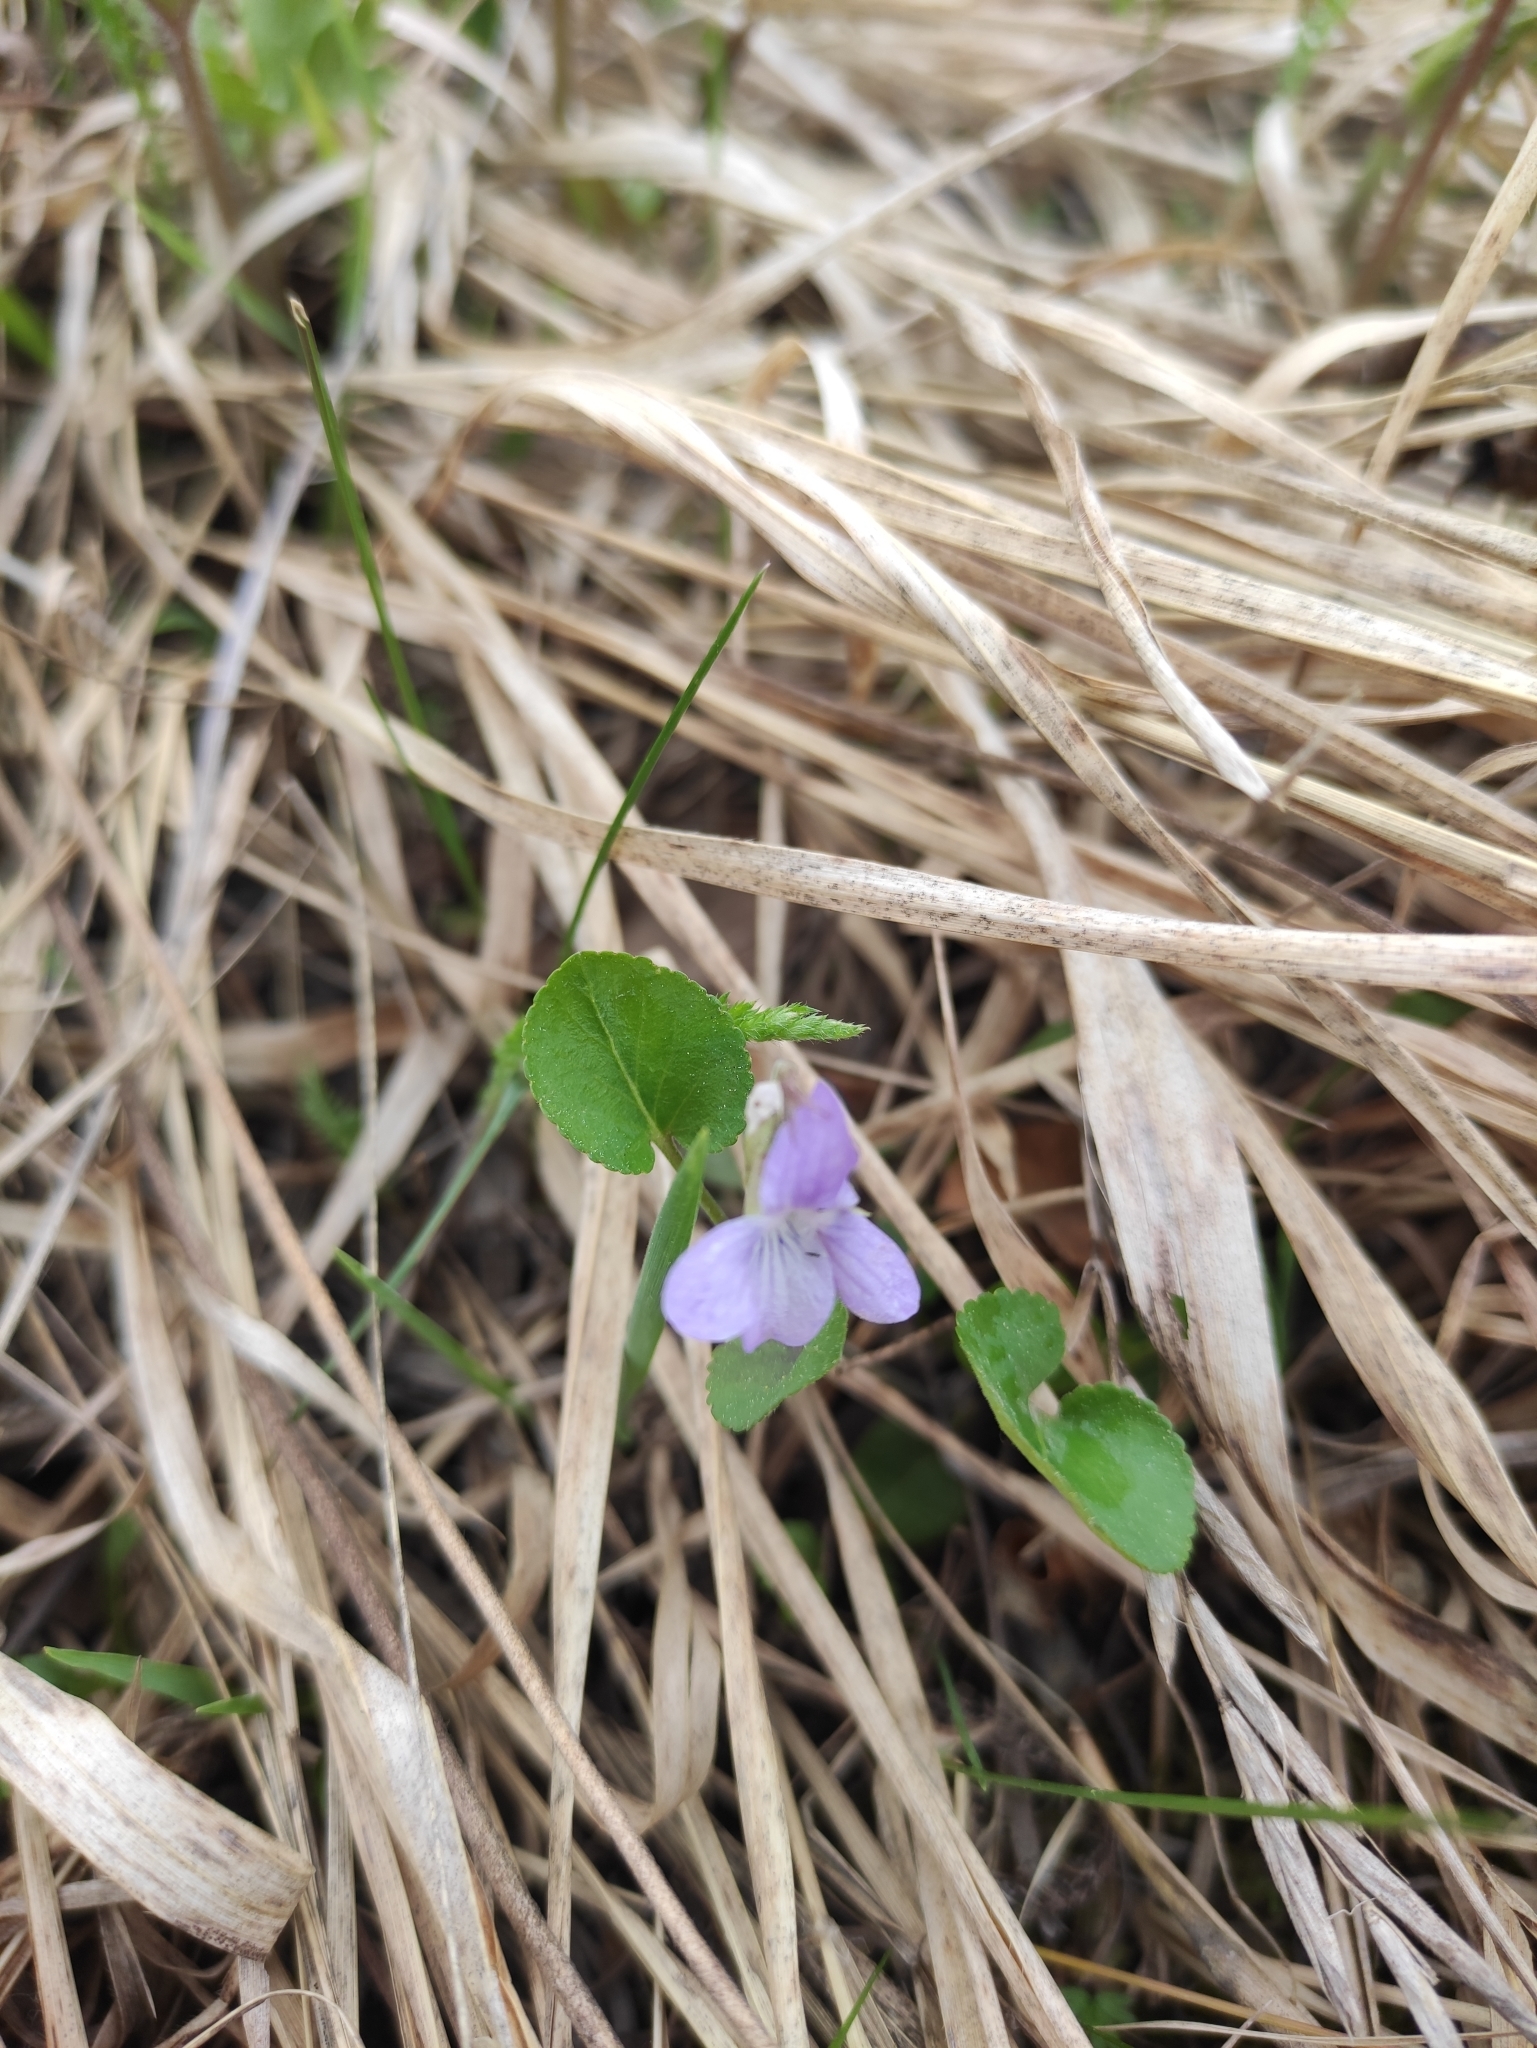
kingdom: Plantae
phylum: Tracheophyta
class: Magnoliopsida
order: Malpighiales
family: Violaceae
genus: Viola
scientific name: Viola rupestris
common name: Teesdale violet
